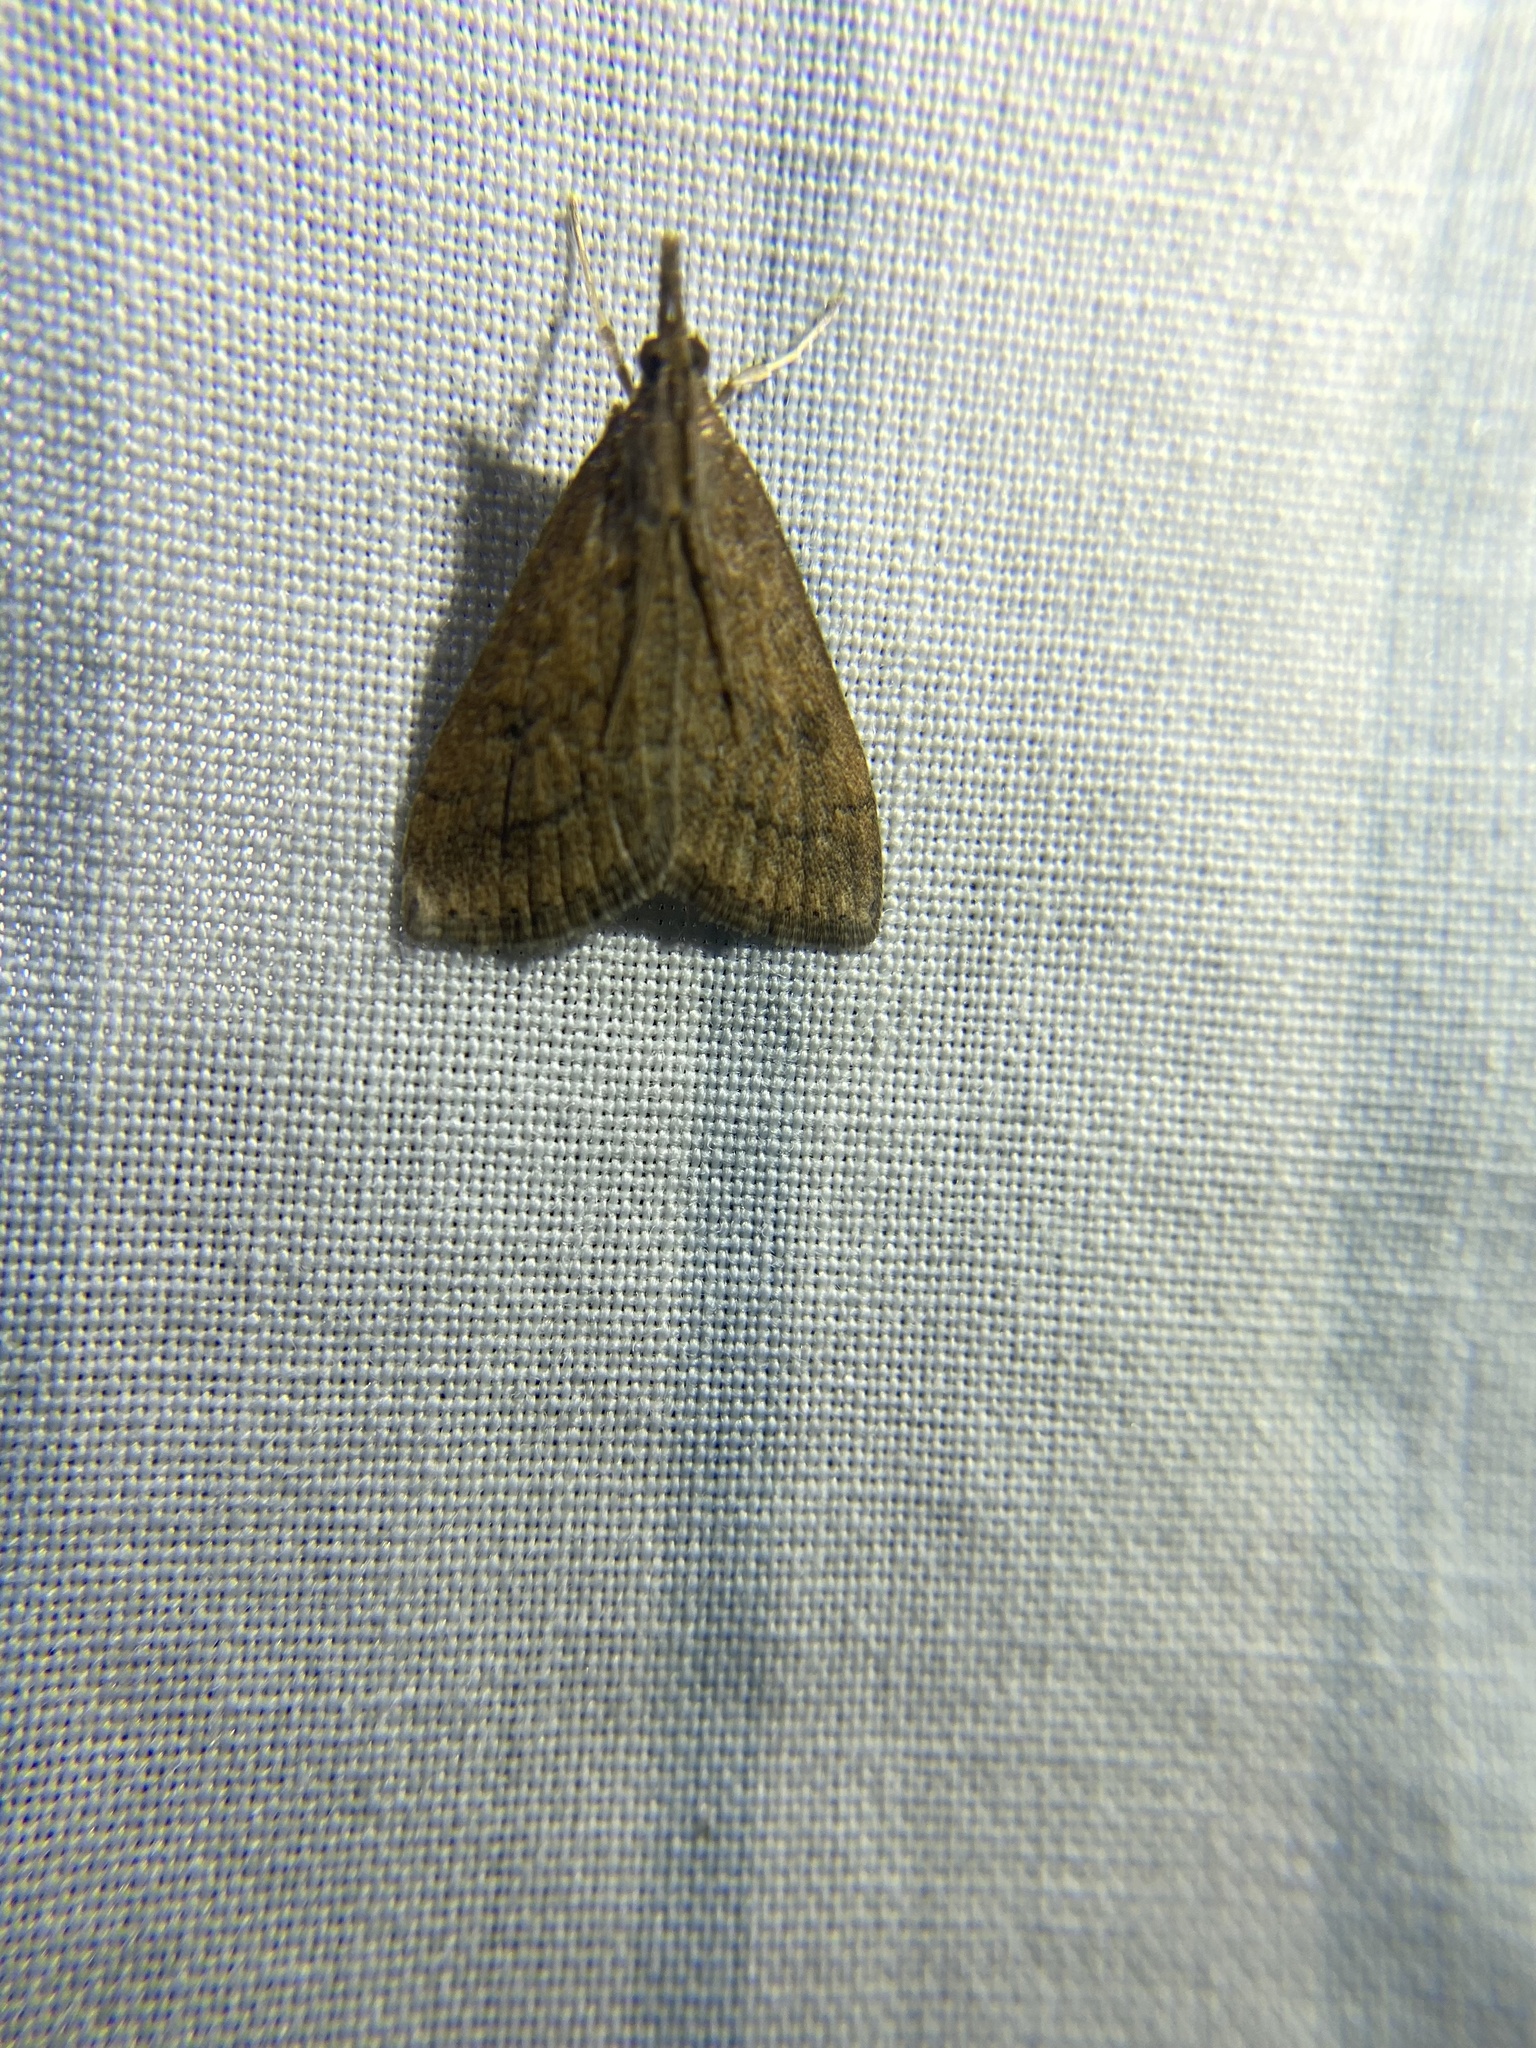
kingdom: Animalia
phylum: Arthropoda
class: Insecta
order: Lepidoptera
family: Crambidae
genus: Udea
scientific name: Udea rubigalis
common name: Celery leaftier moth
